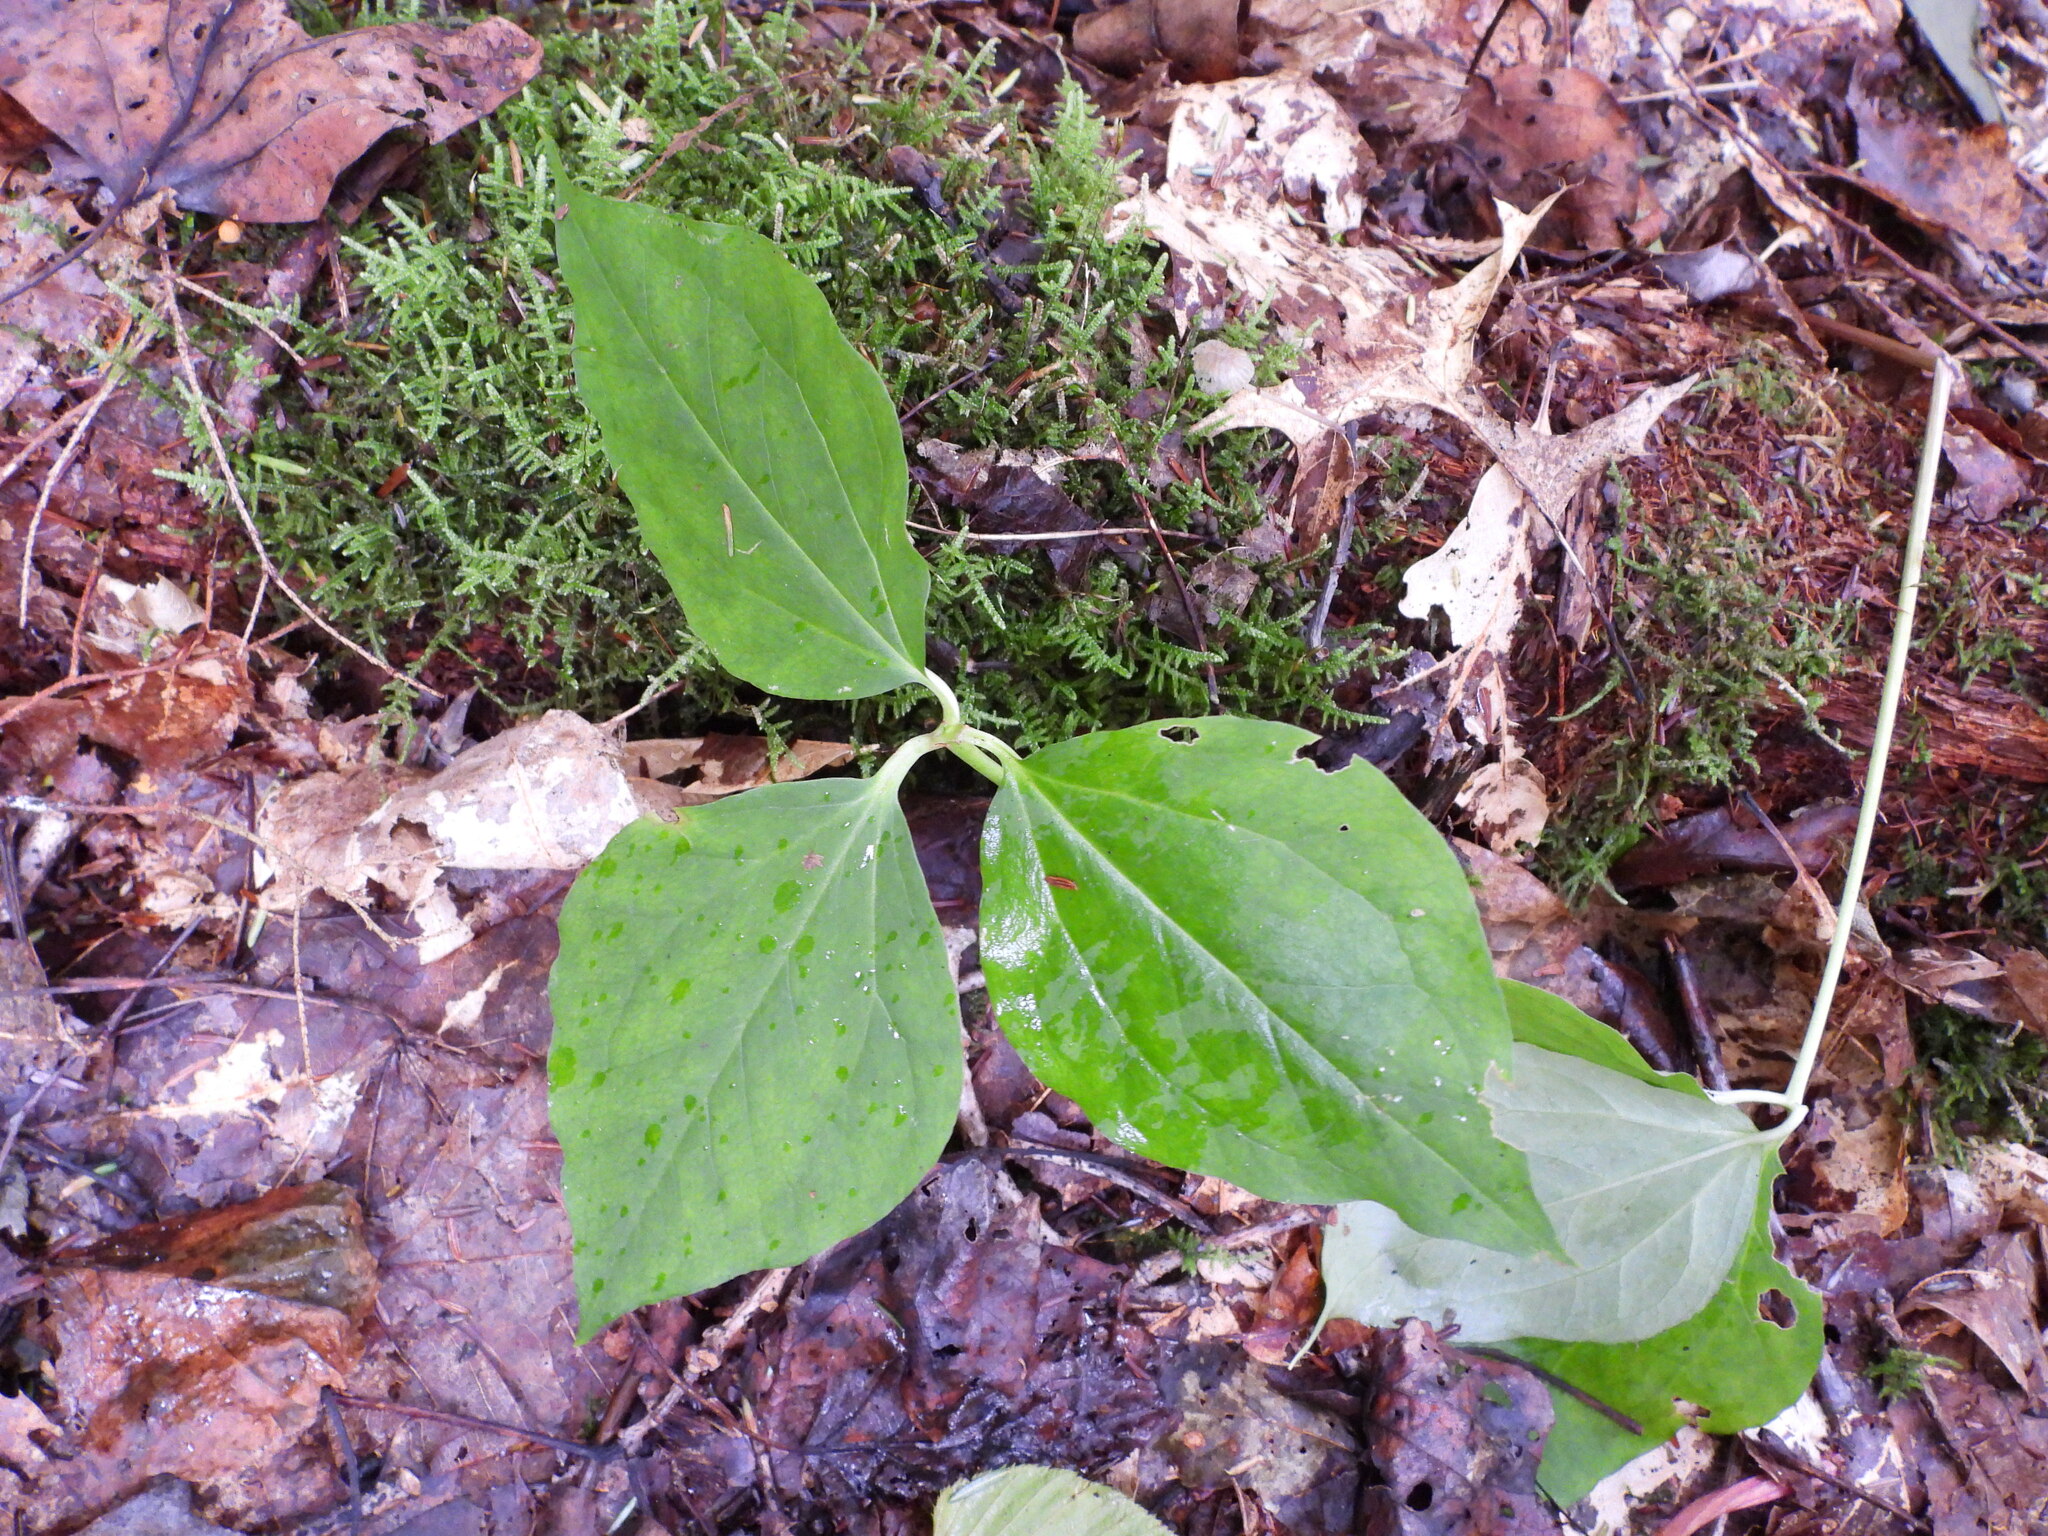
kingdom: Plantae
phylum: Tracheophyta
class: Liliopsida
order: Liliales
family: Melanthiaceae
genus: Trillium
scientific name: Trillium undulatum
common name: Paint trillium
